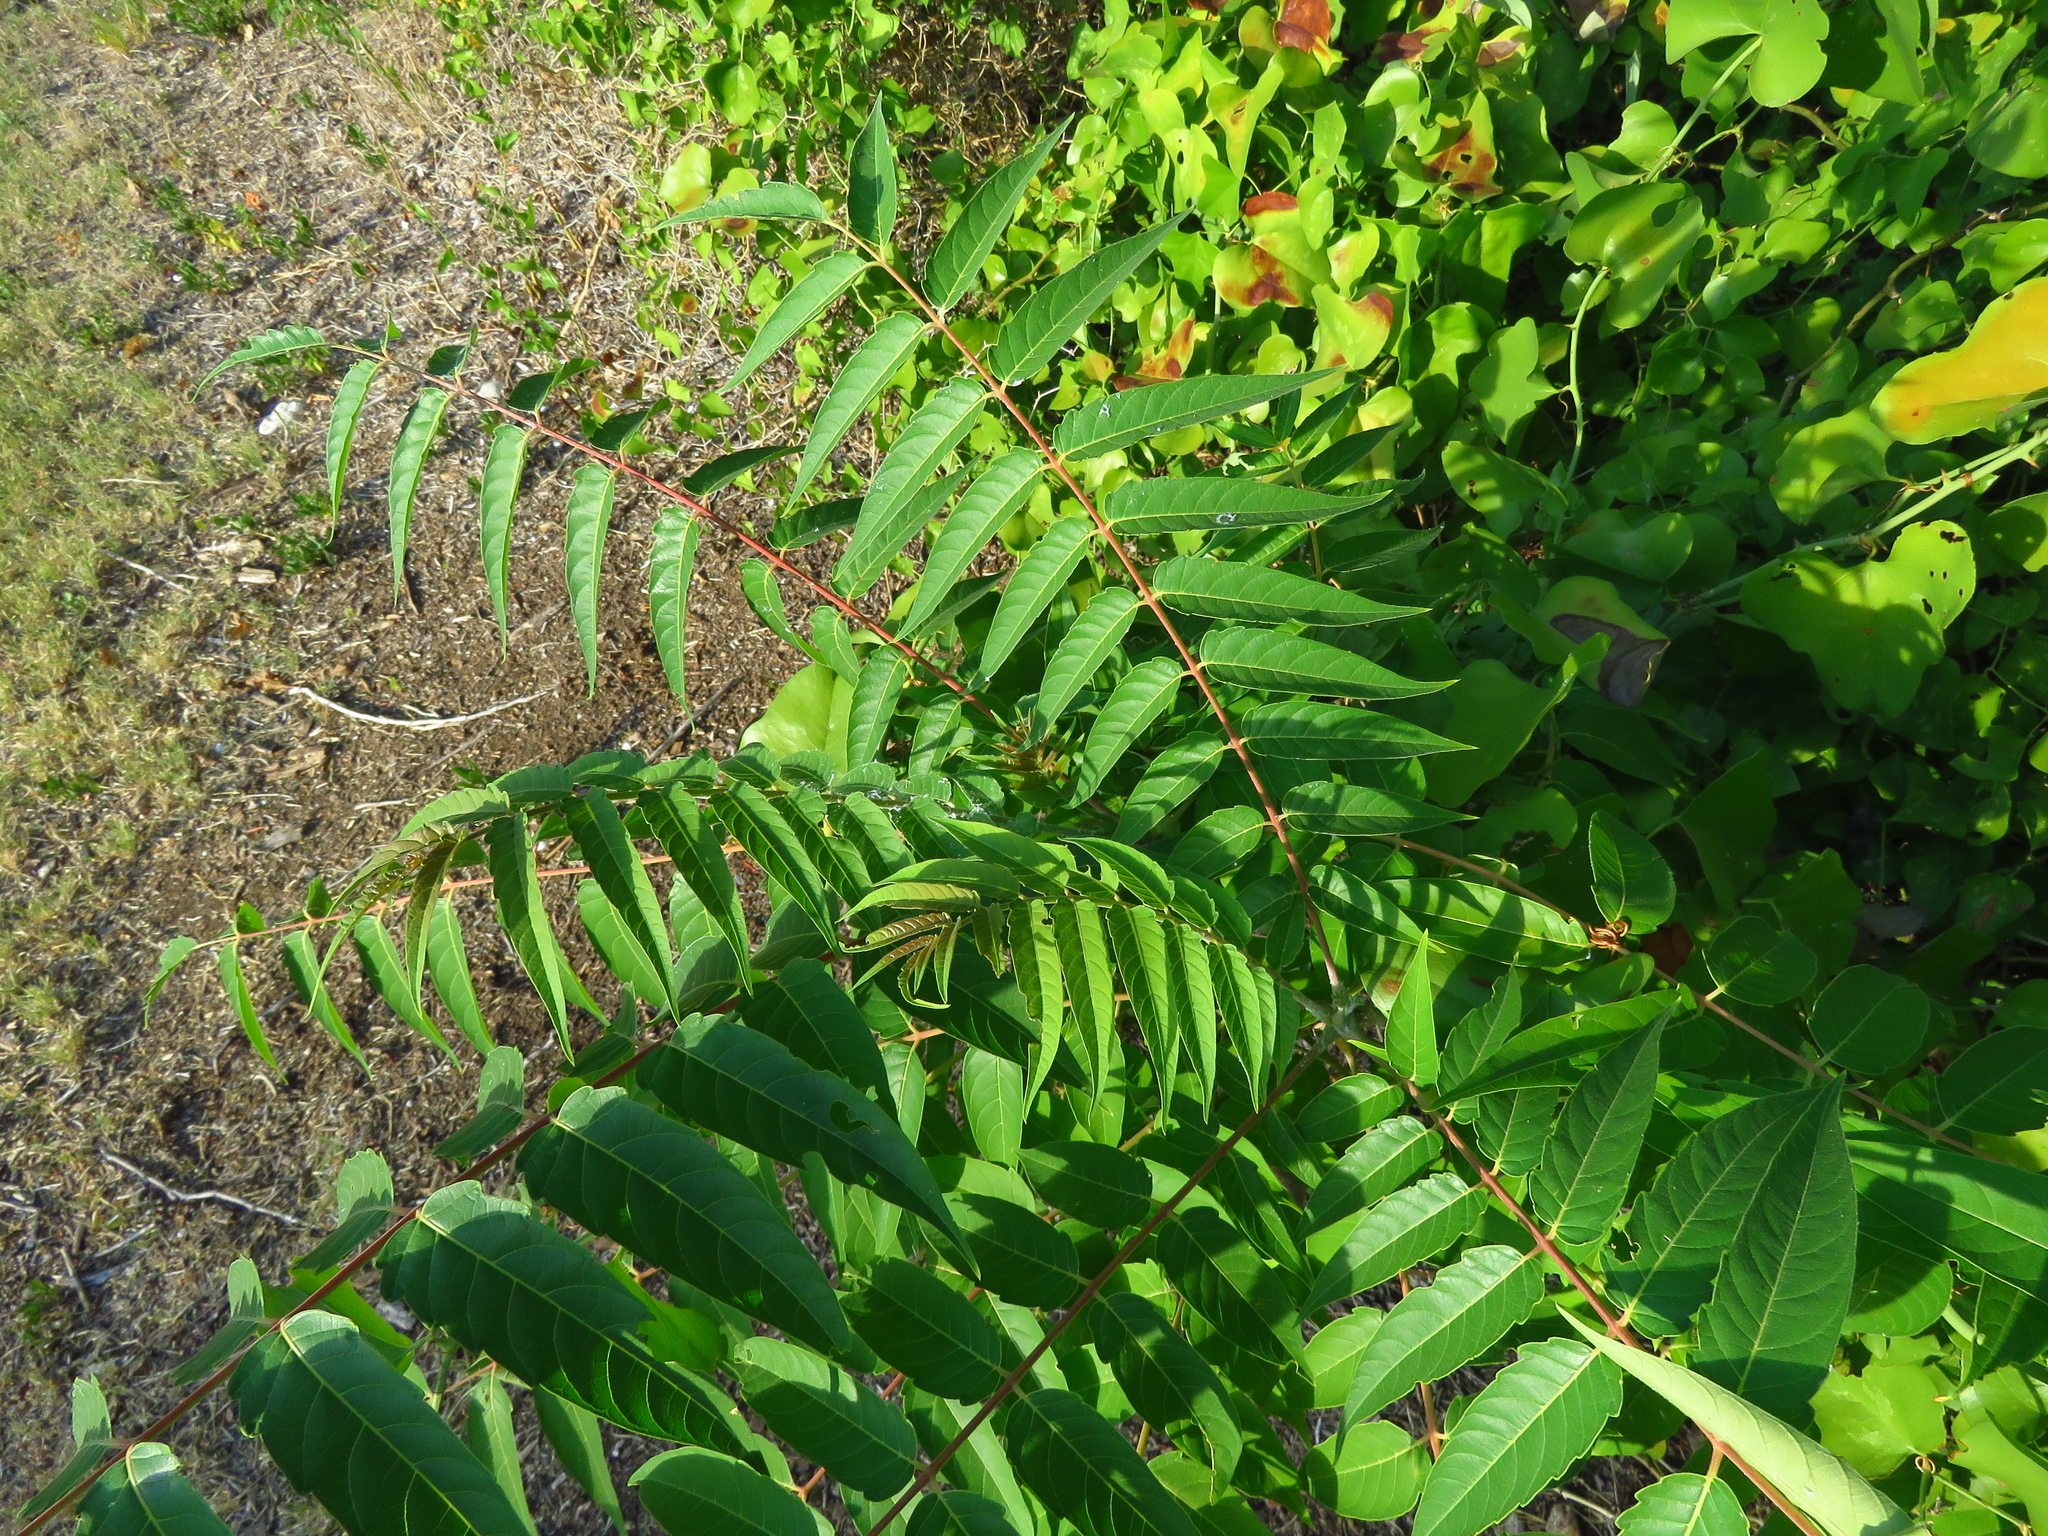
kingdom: Plantae
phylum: Tracheophyta
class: Magnoliopsida
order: Sapindales
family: Simaroubaceae
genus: Ailanthus
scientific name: Ailanthus altissima
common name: Tree-of-heaven
